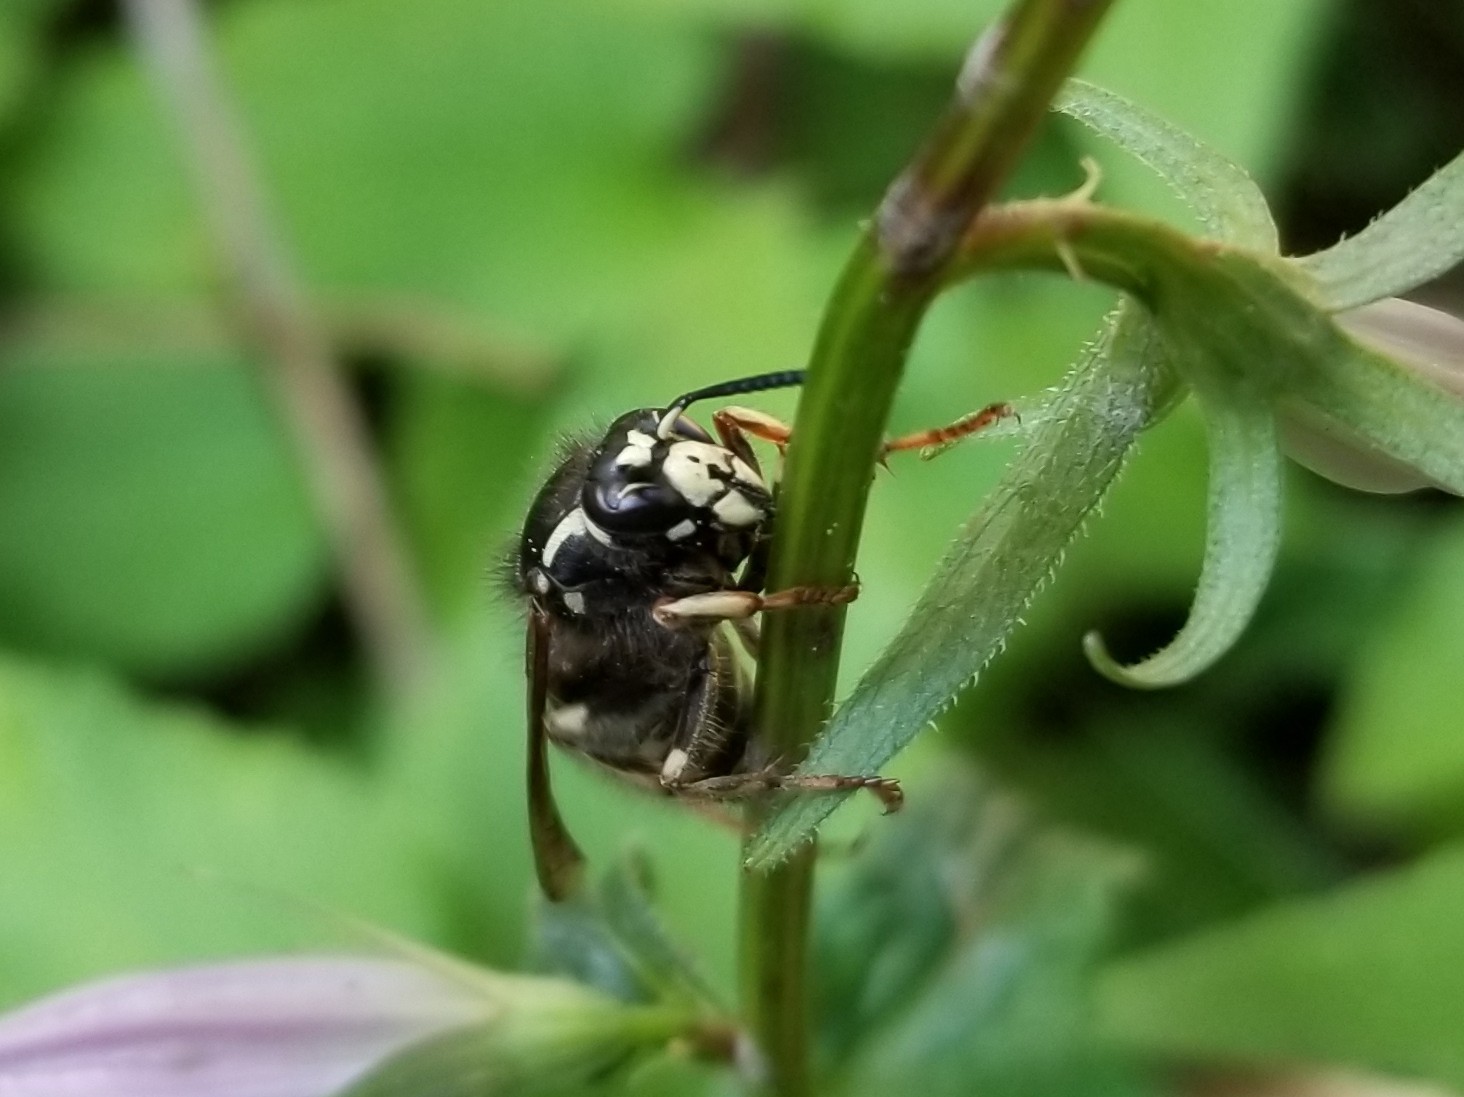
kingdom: Animalia
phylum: Arthropoda
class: Insecta
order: Hymenoptera
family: Vespidae
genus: Dolichovespula
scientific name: Dolichovespula adulterina
